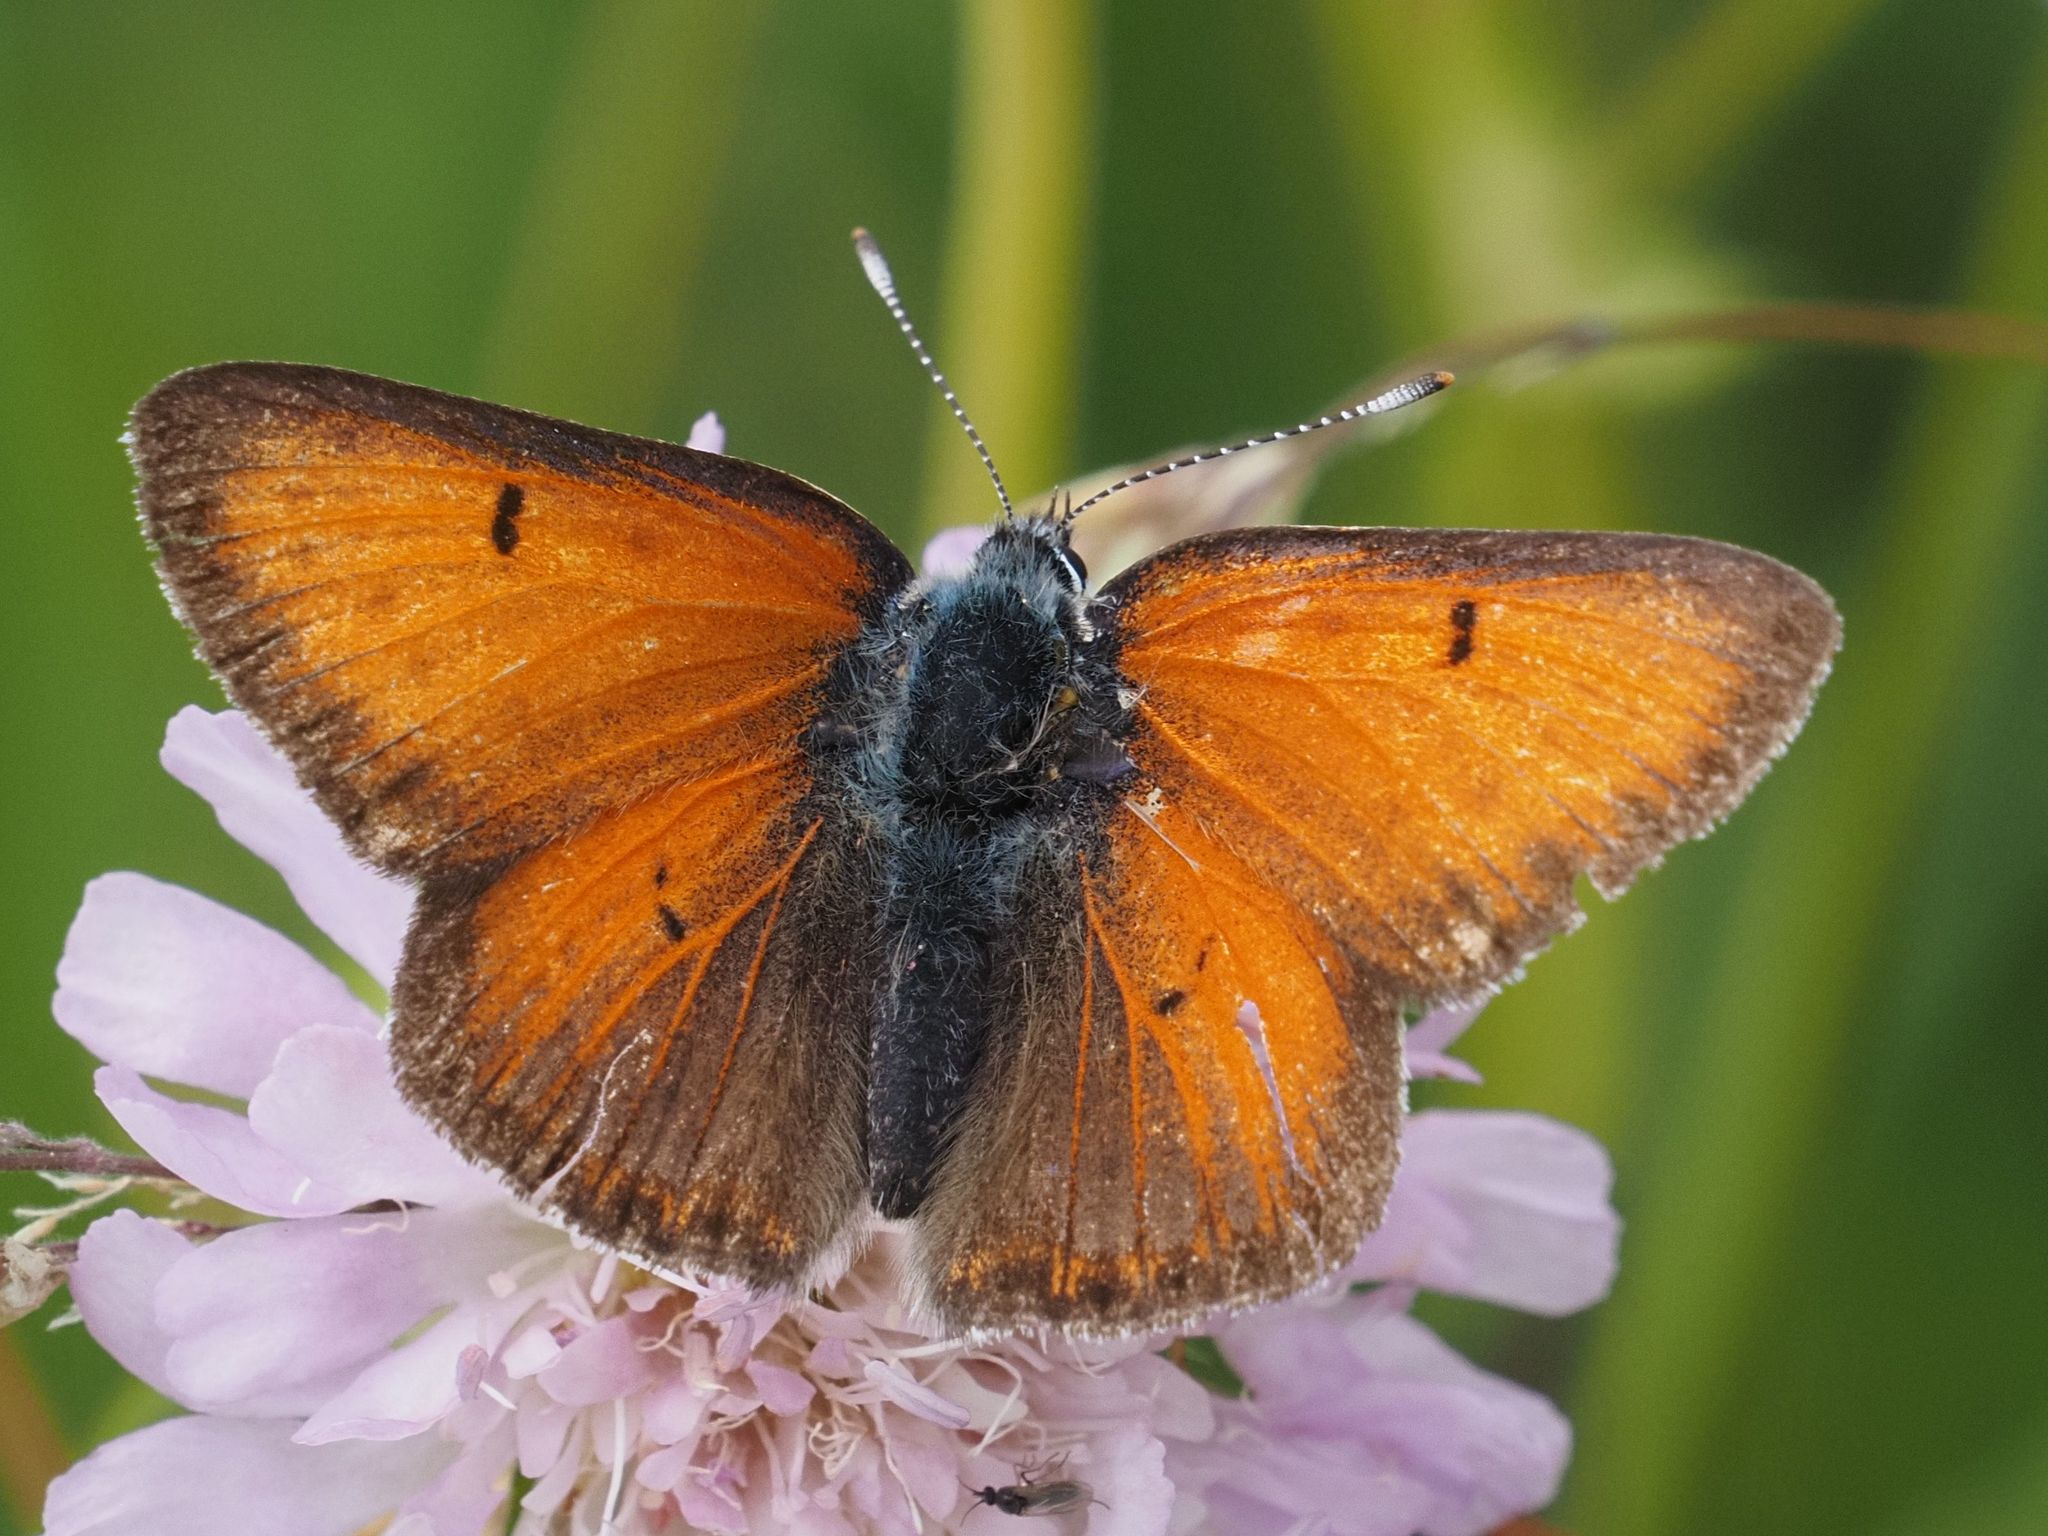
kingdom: Animalia
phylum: Arthropoda
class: Insecta
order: Lepidoptera
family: Lycaenidae
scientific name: Lycaenidae
